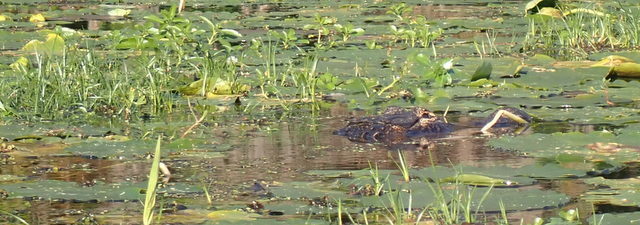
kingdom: Animalia
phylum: Chordata
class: Crocodylia
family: Alligatoridae
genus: Alligator
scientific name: Alligator mississippiensis
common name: American alligator
